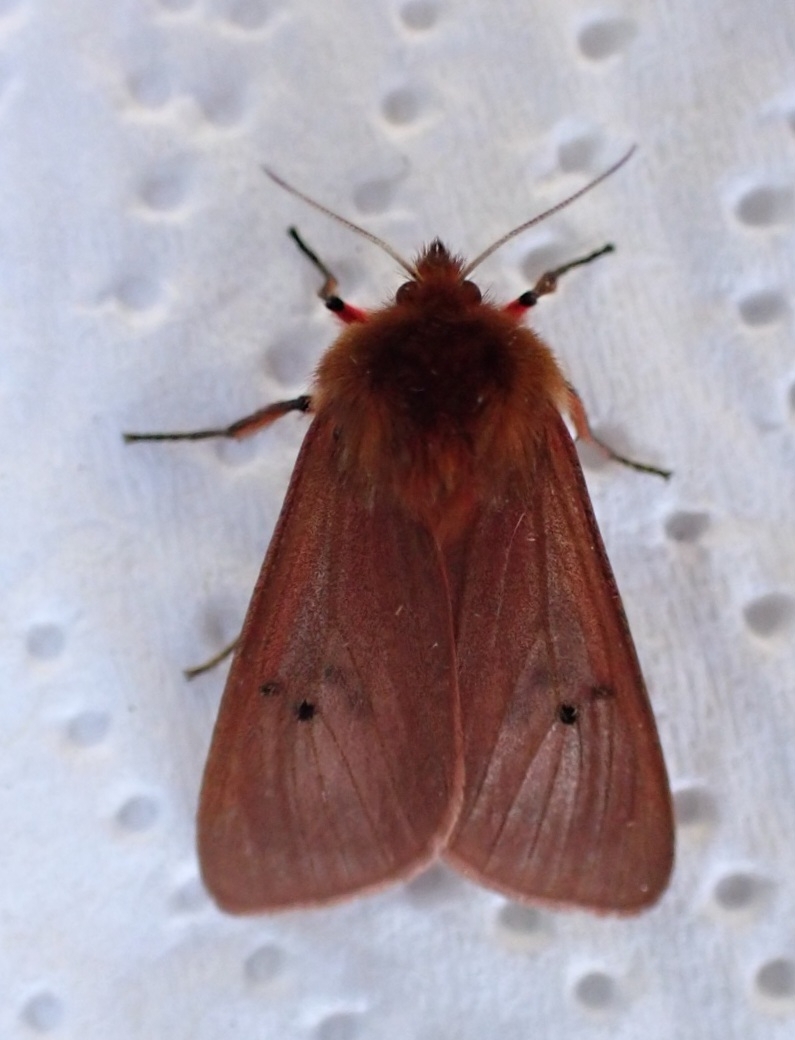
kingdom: Animalia
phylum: Arthropoda
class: Insecta
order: Lepidoptera
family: Erebidae
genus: Phragmatobia
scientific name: Phragmatobia fuliginosa
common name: Ruby tiger
